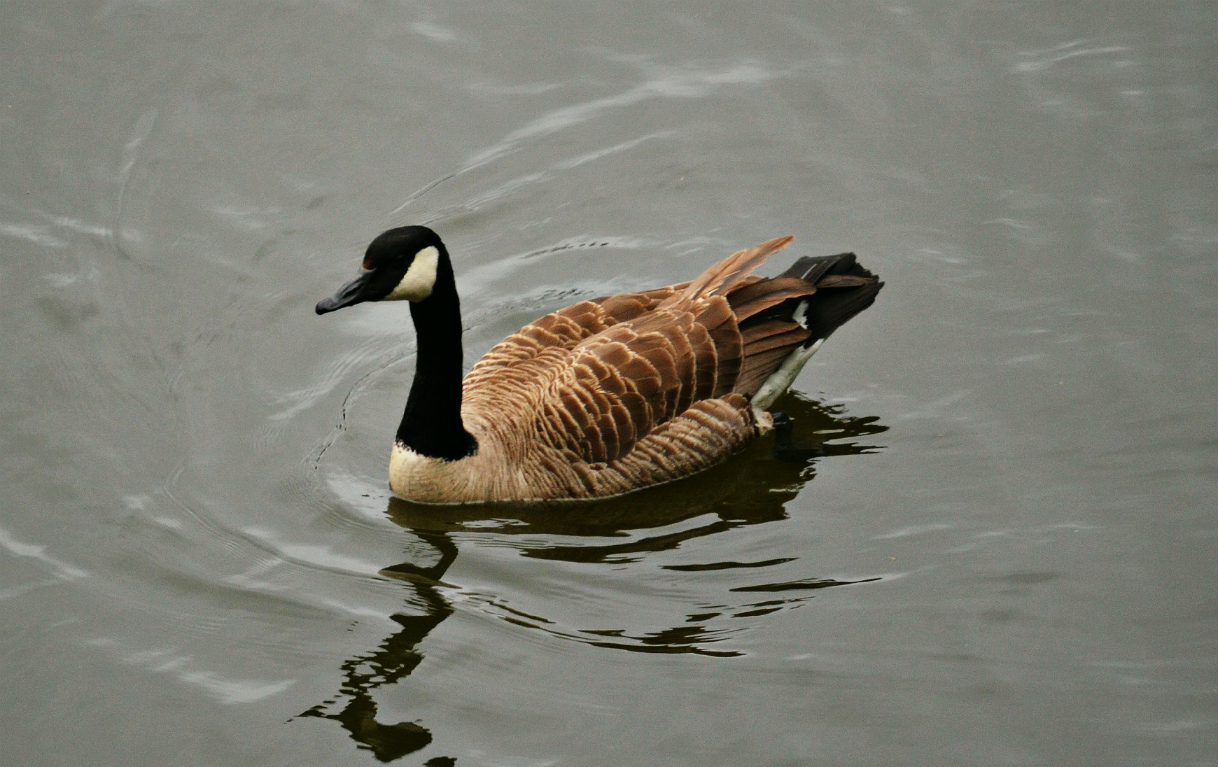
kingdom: Animalia
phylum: Chordata
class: Aves
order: Anseriformes
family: Anatidae
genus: Branta
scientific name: Branta canadensis
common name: Canada goose
